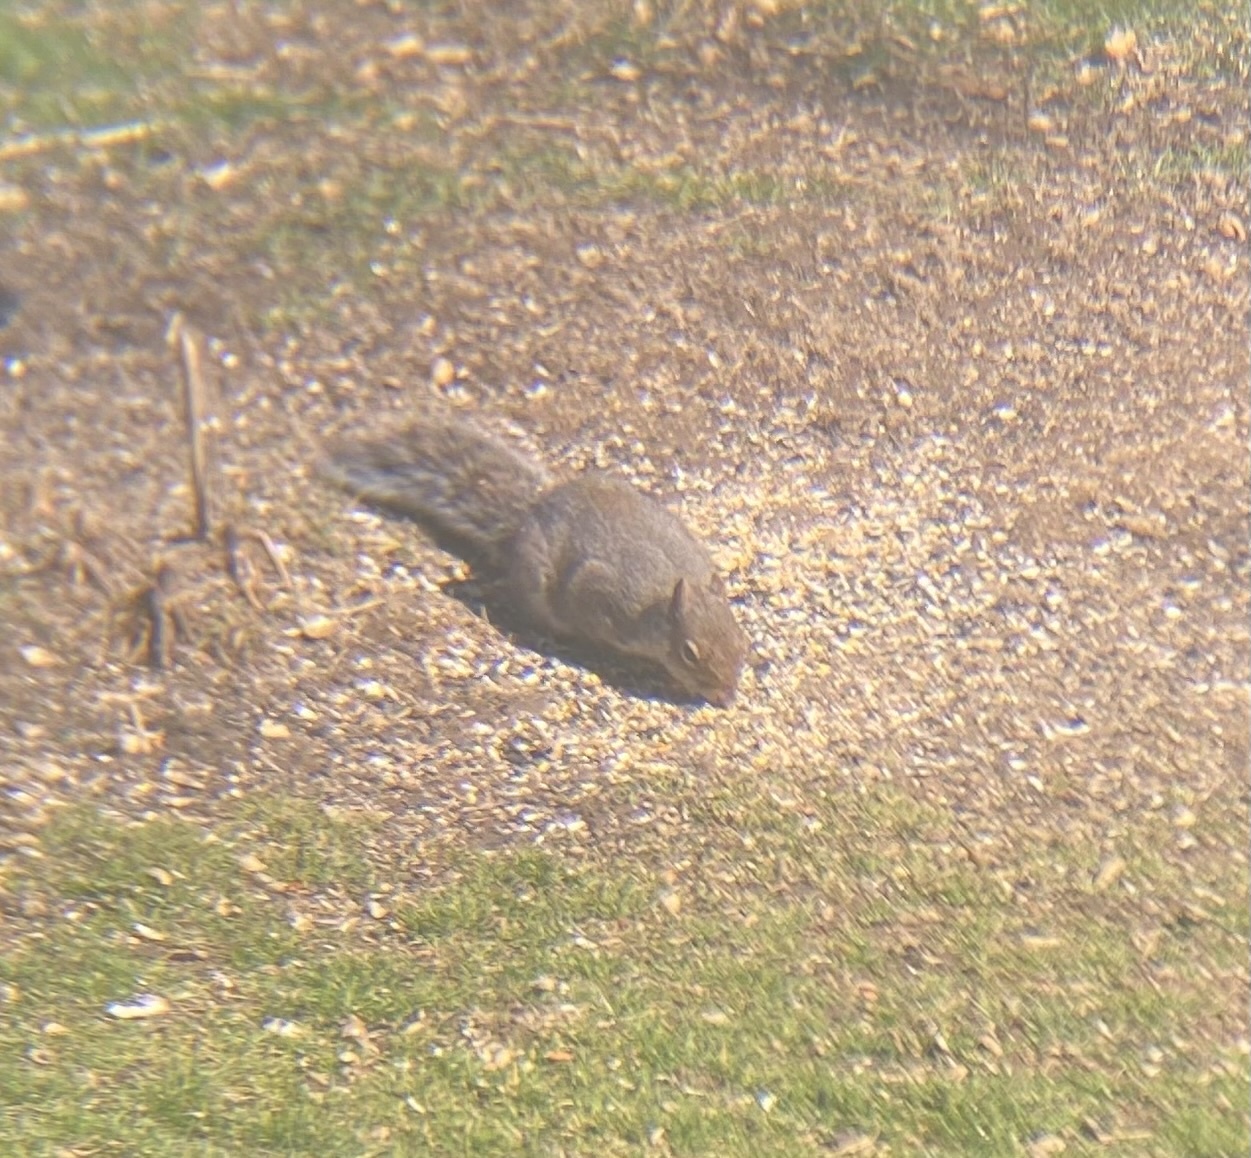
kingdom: Animalia
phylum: Chordata
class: Mammalia
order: Rodentia
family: Sciuridae
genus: Sciurus
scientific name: Sciurus carolinensis
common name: Eastern gray squirrel
